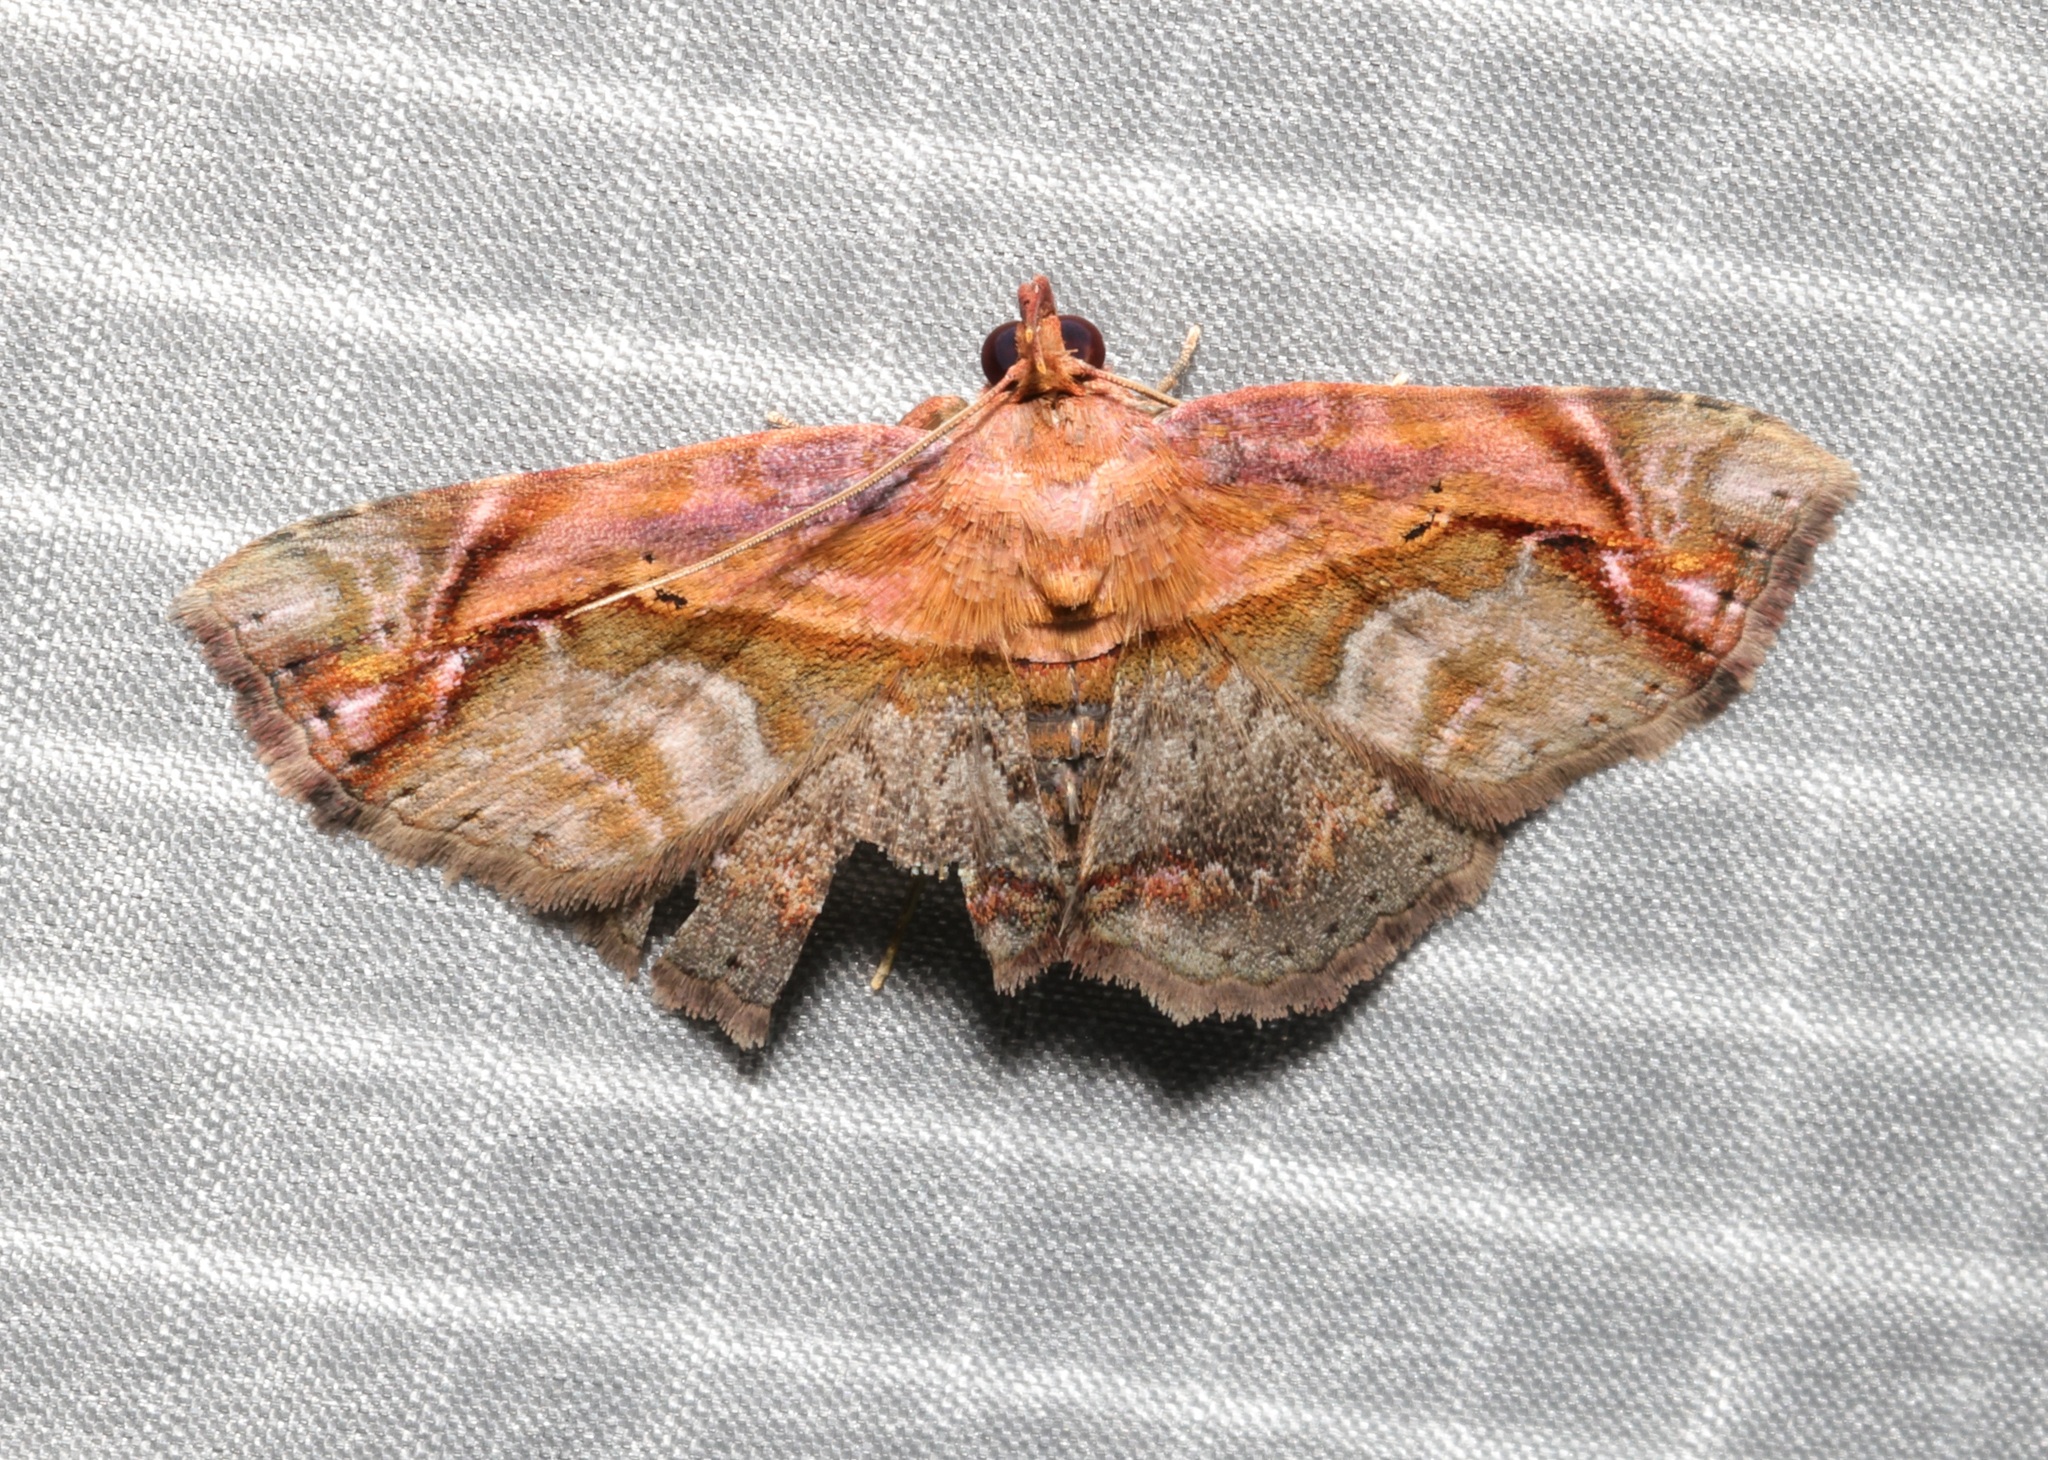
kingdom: Animalia
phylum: Arthropoda
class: Insecta
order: Lepidoptera
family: Noctuidae
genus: Lophoruza
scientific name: Lophoruza pulcherrima
